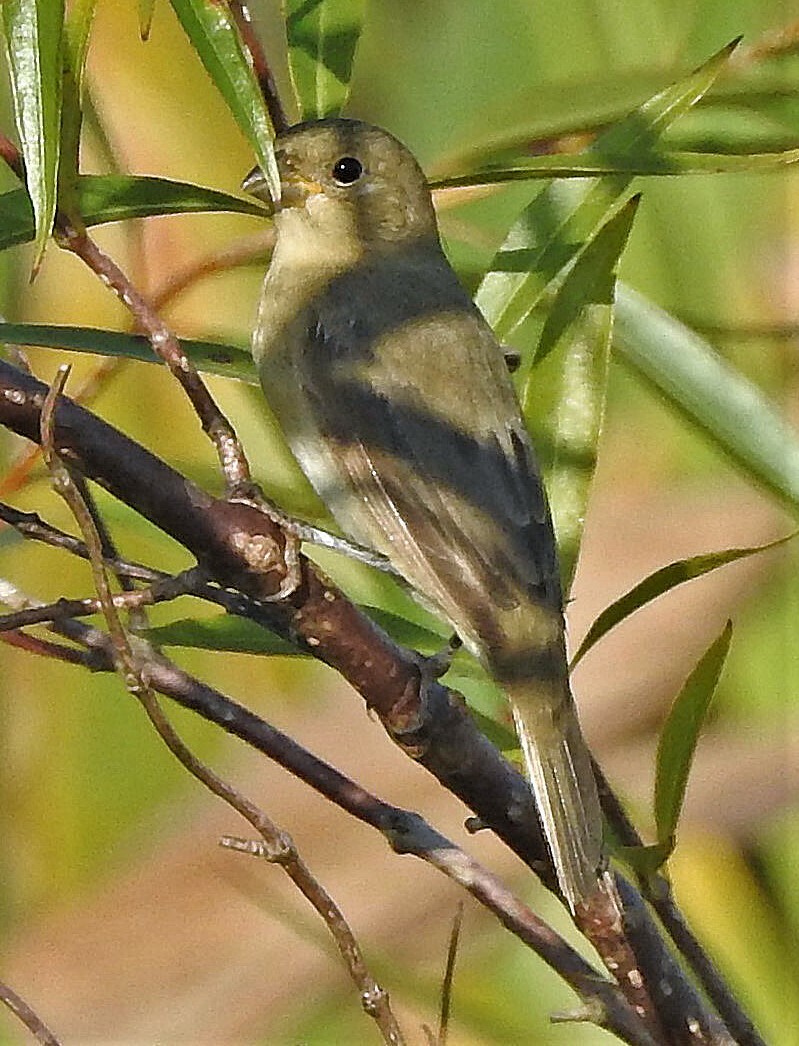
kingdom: Animalia
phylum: Chordata
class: Aves
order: Passeriformes
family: Thraupidae
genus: Sporophila
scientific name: Sporophila caerulescens
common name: Double-collared seedeater
